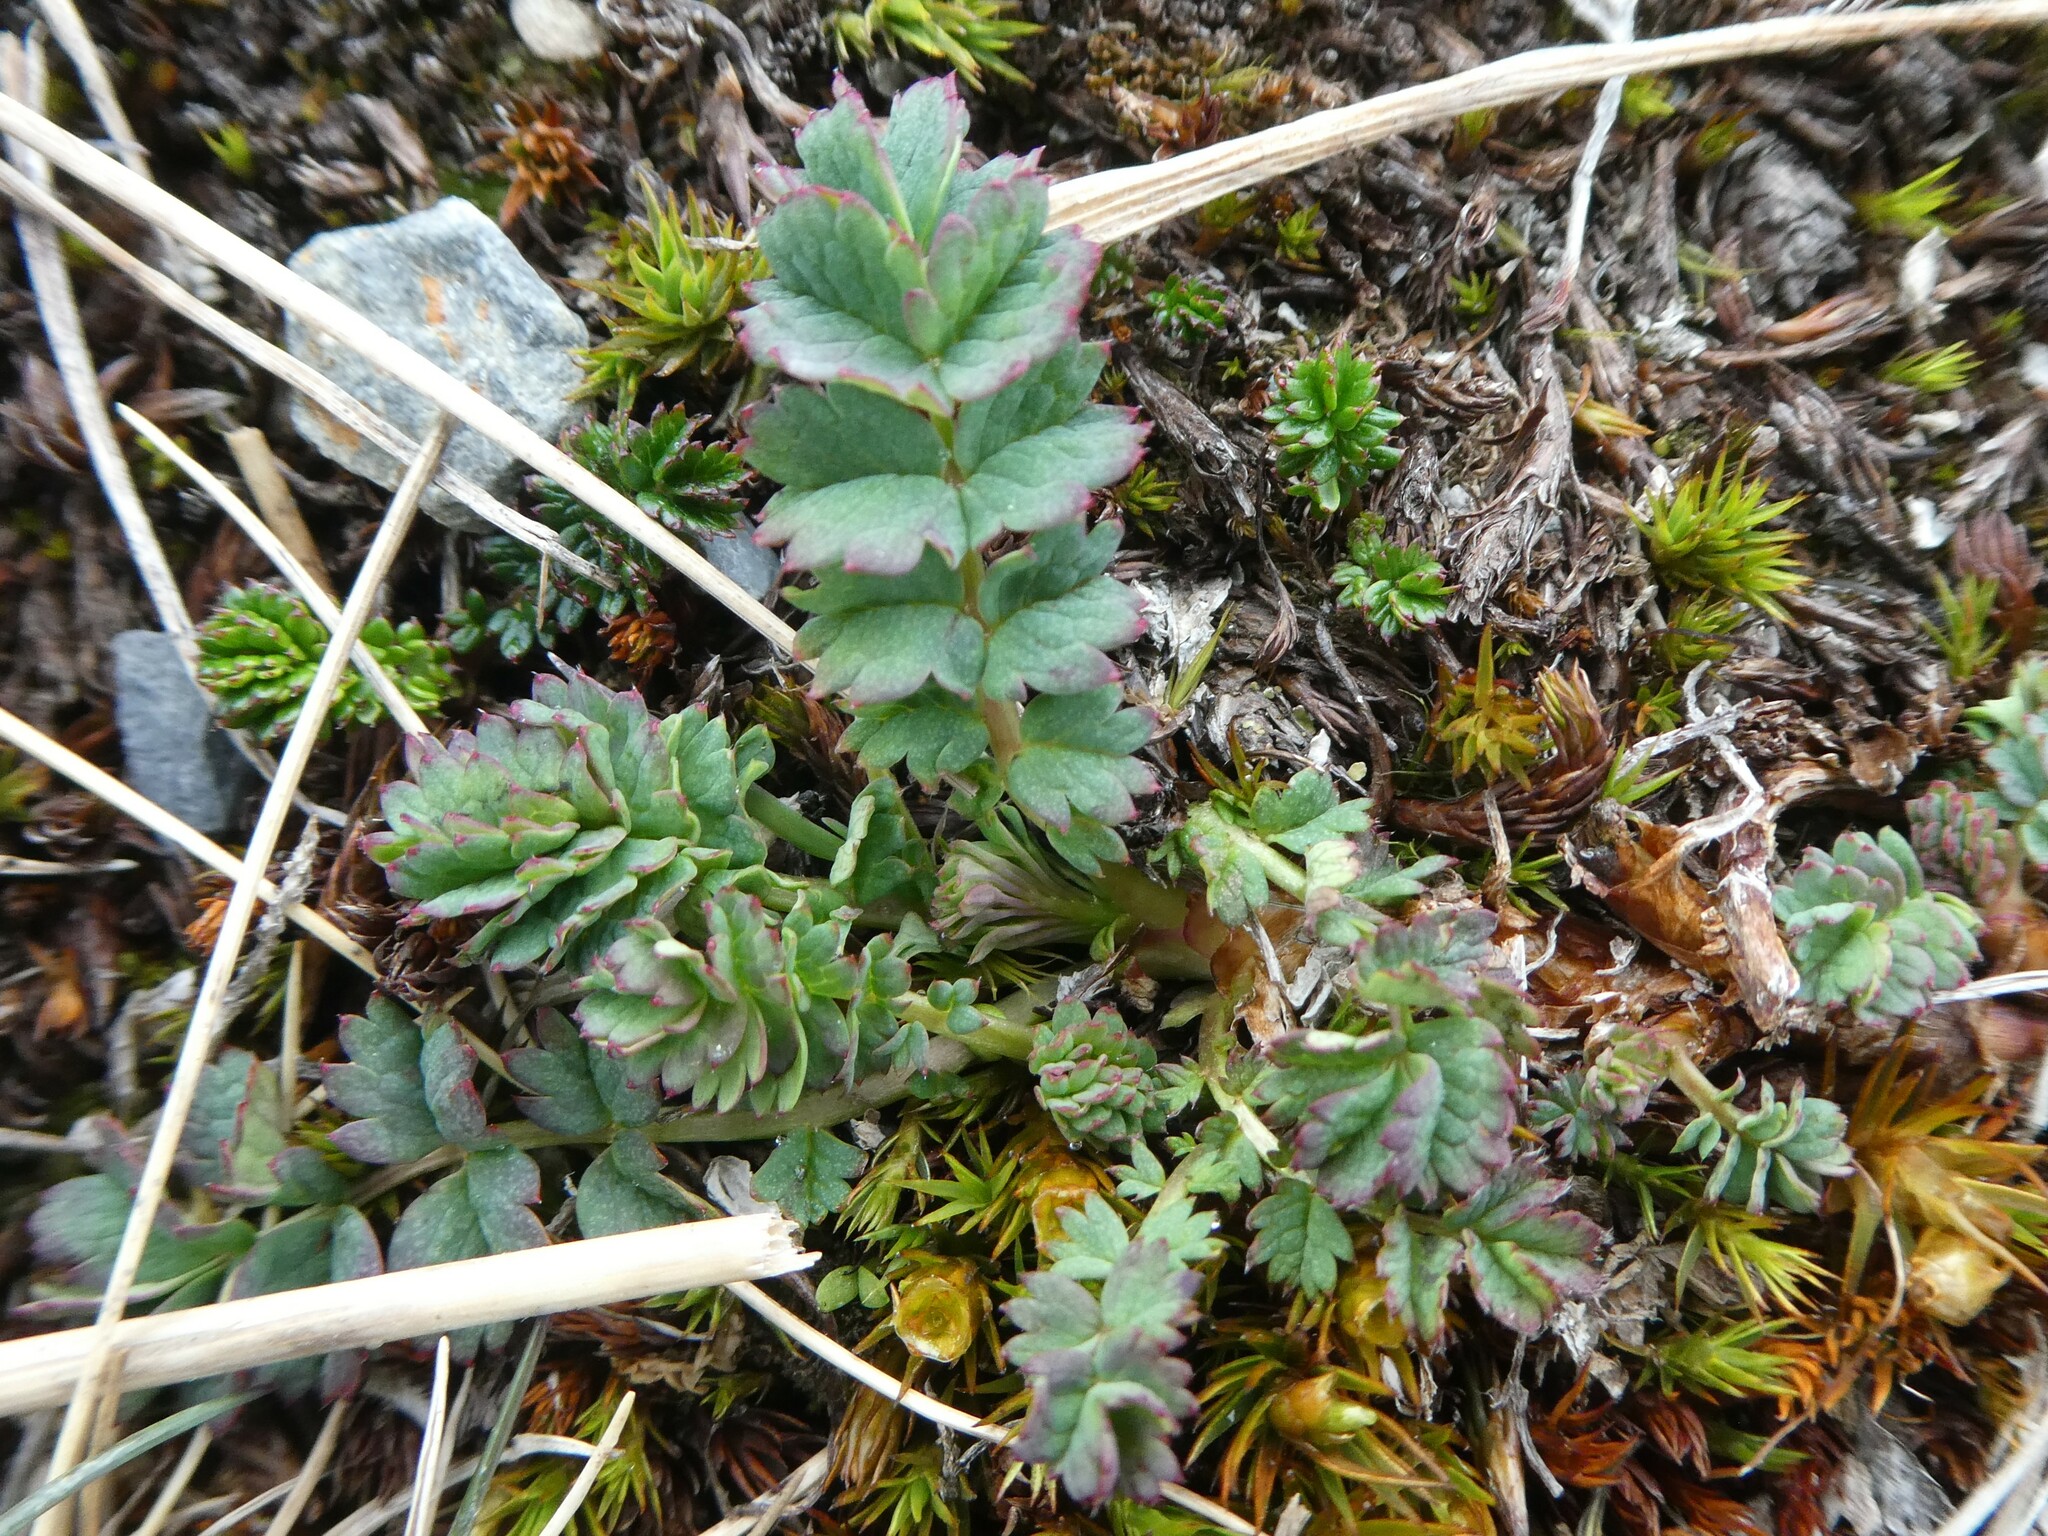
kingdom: Plantae
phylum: Tracheophyta
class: Magnoliopsida
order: Rosales
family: Rosaceae
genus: Acaena
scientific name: Acaena magellanica
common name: New zealand burr
